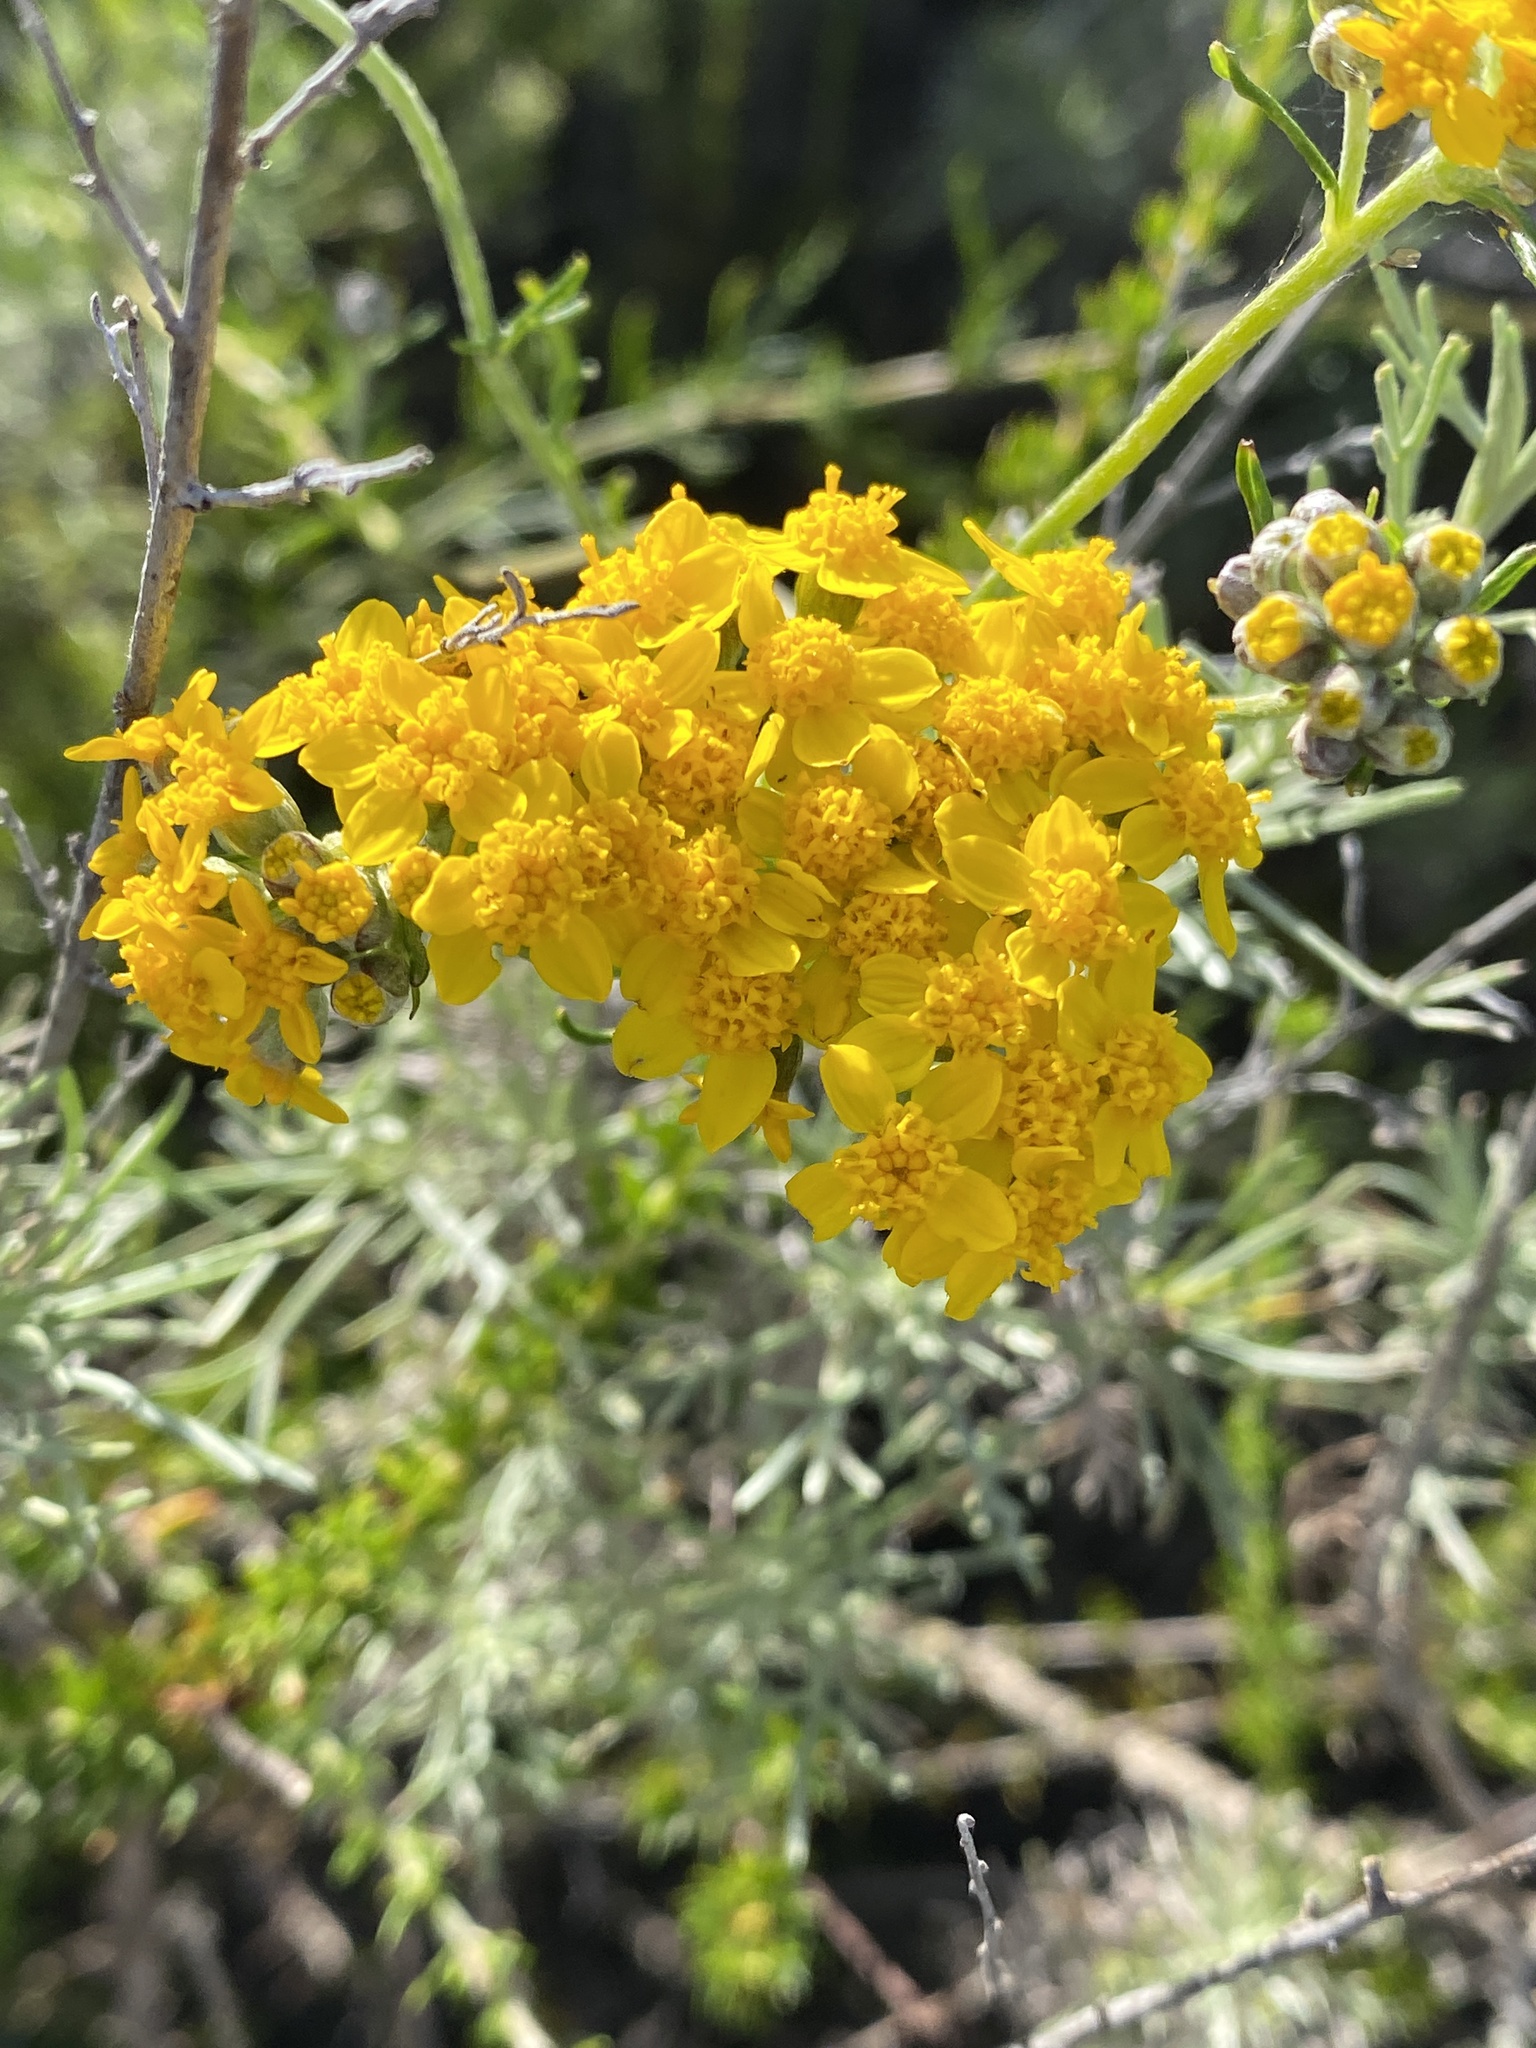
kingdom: Plantae
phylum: Tracheophyta
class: Magnoliopsida
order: Asterales
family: Asteraceae
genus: Eriophyllum
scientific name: Eriophyllum confertiflorum
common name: Golden-yarrow
